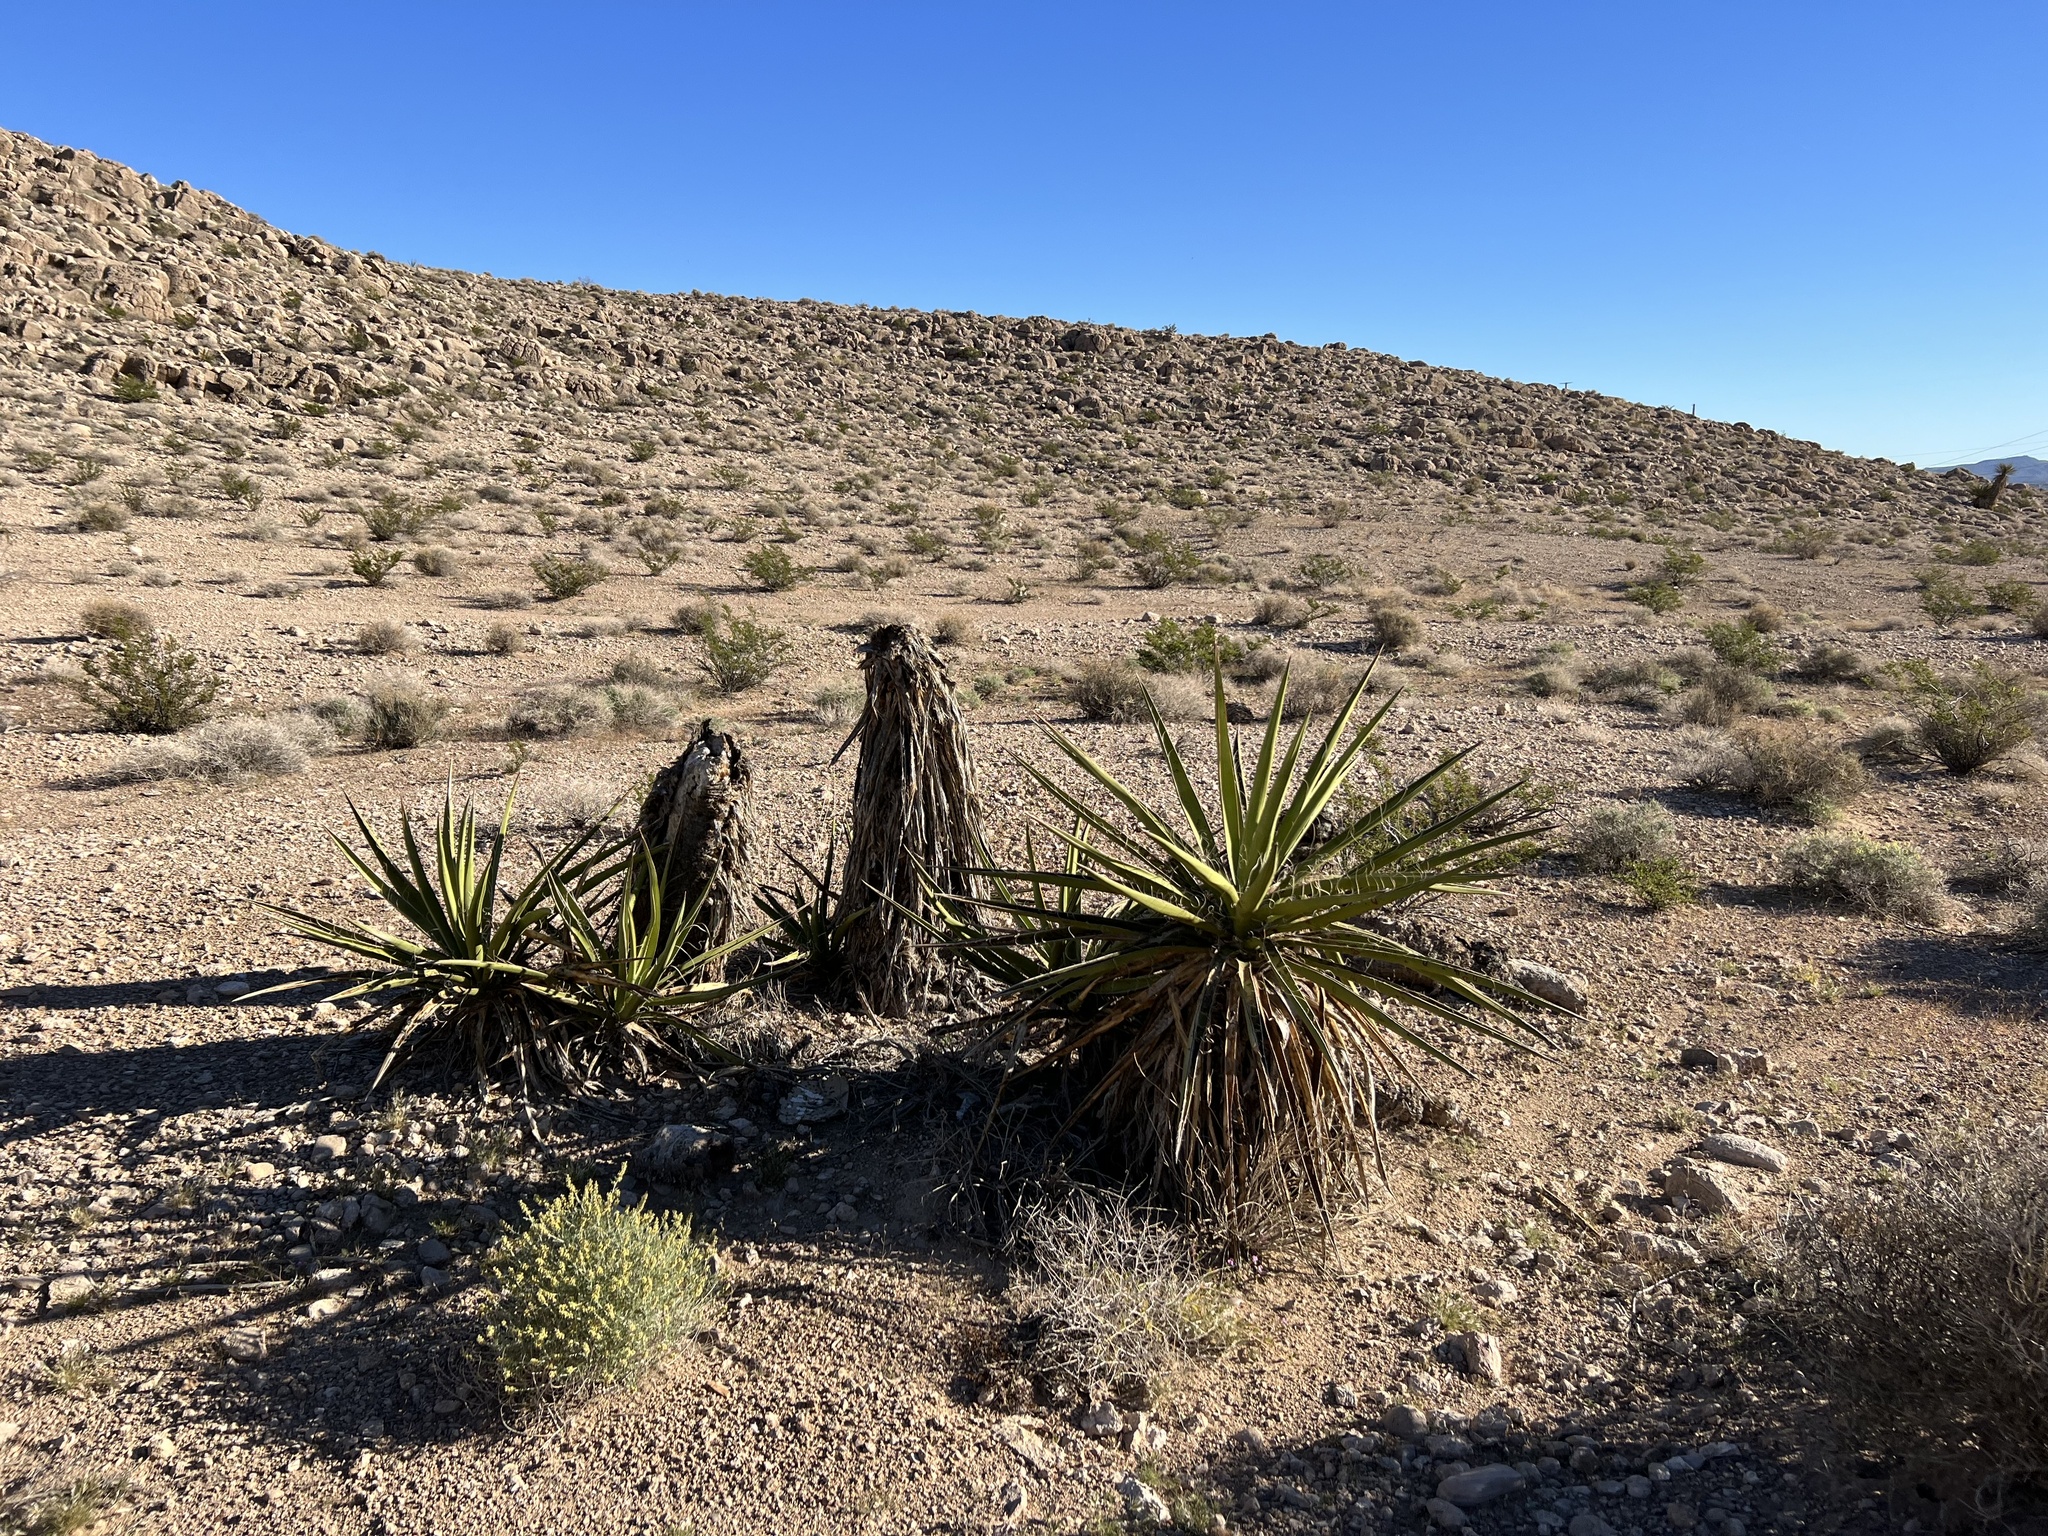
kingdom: Plantae
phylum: Tracheophyta
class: Liliopsida
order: Asparagales
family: Asparagaceae
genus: Yucca
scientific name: Yucca schidigera
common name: Mojave yucca
